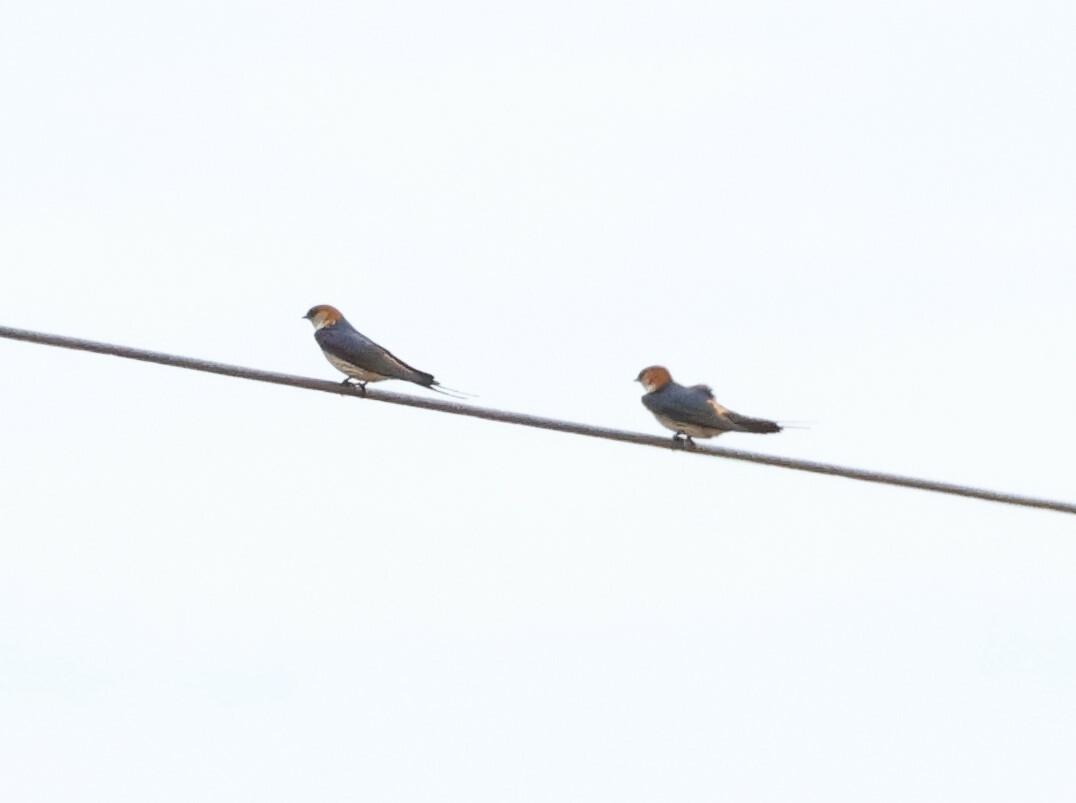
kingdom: Animalia
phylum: Chordata
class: Aves
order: Passeriformes
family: Hirundinidae
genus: Cecropis
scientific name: Cecropis cucullata
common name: Greater striped-swallow
